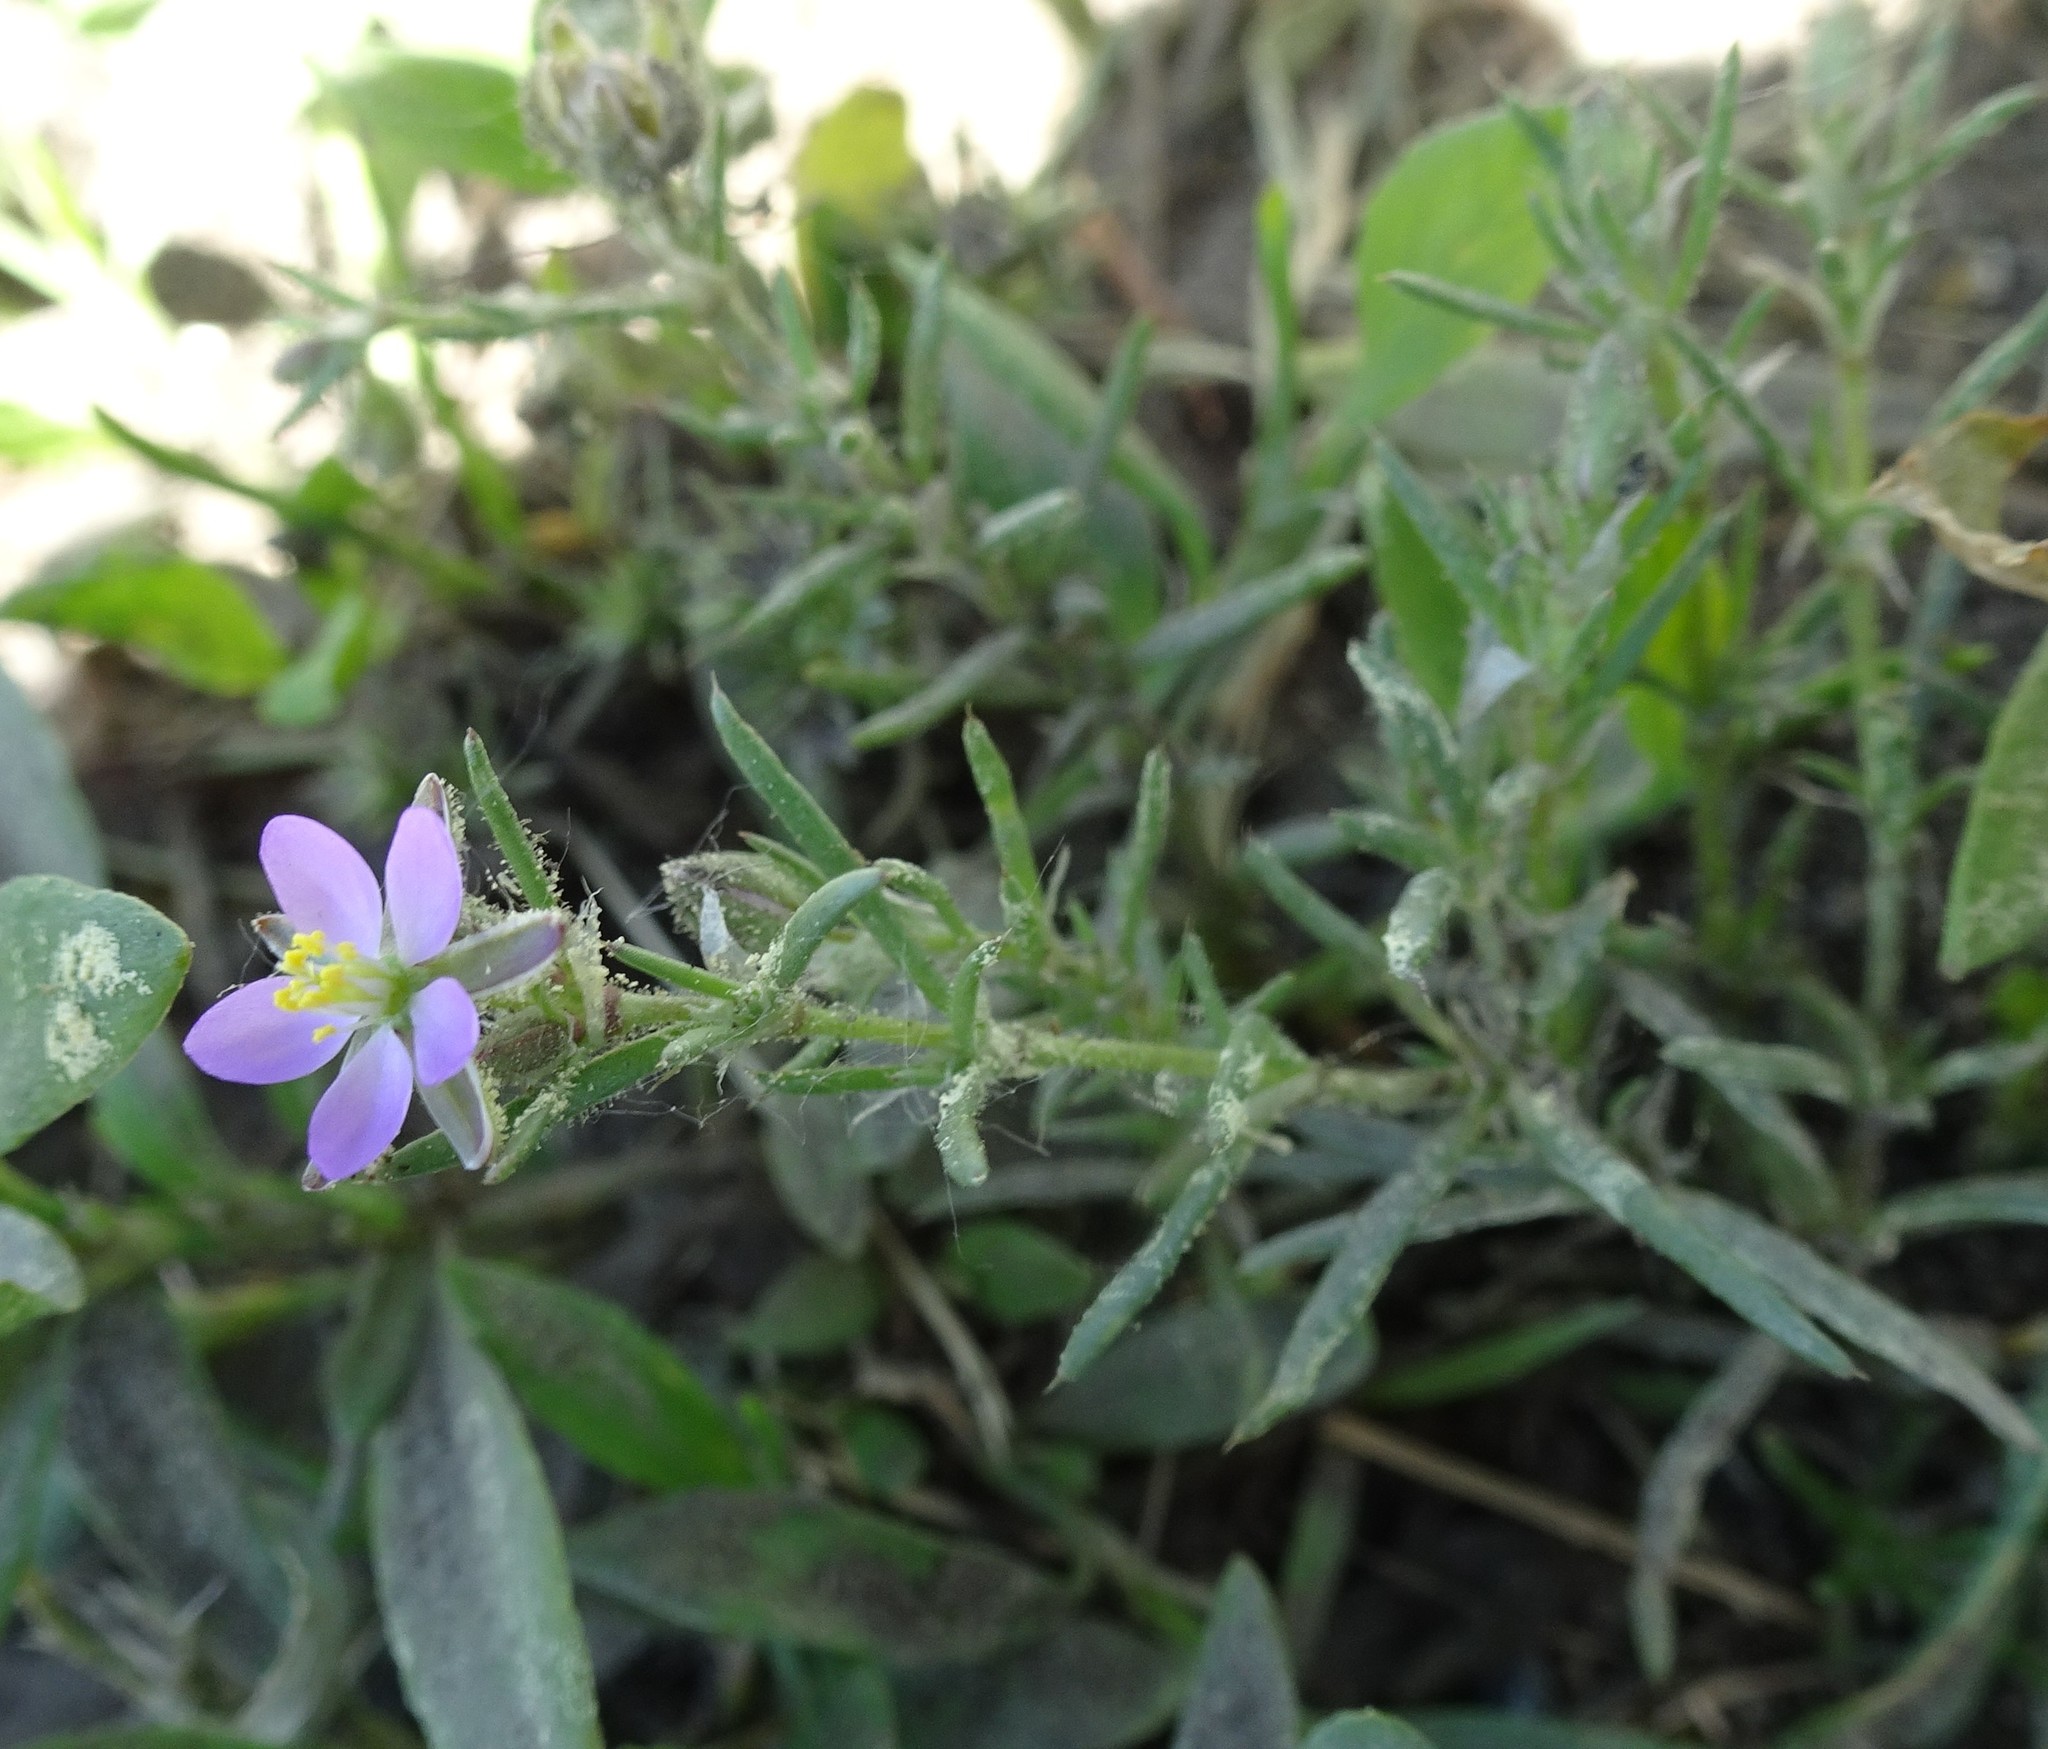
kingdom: Plantae
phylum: Tracheophyta
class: Magnoliopsida
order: Caryophyllales
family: Caryophyllaceae
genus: Spergularia
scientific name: Spergularia rubra
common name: Red sand-spurrey
